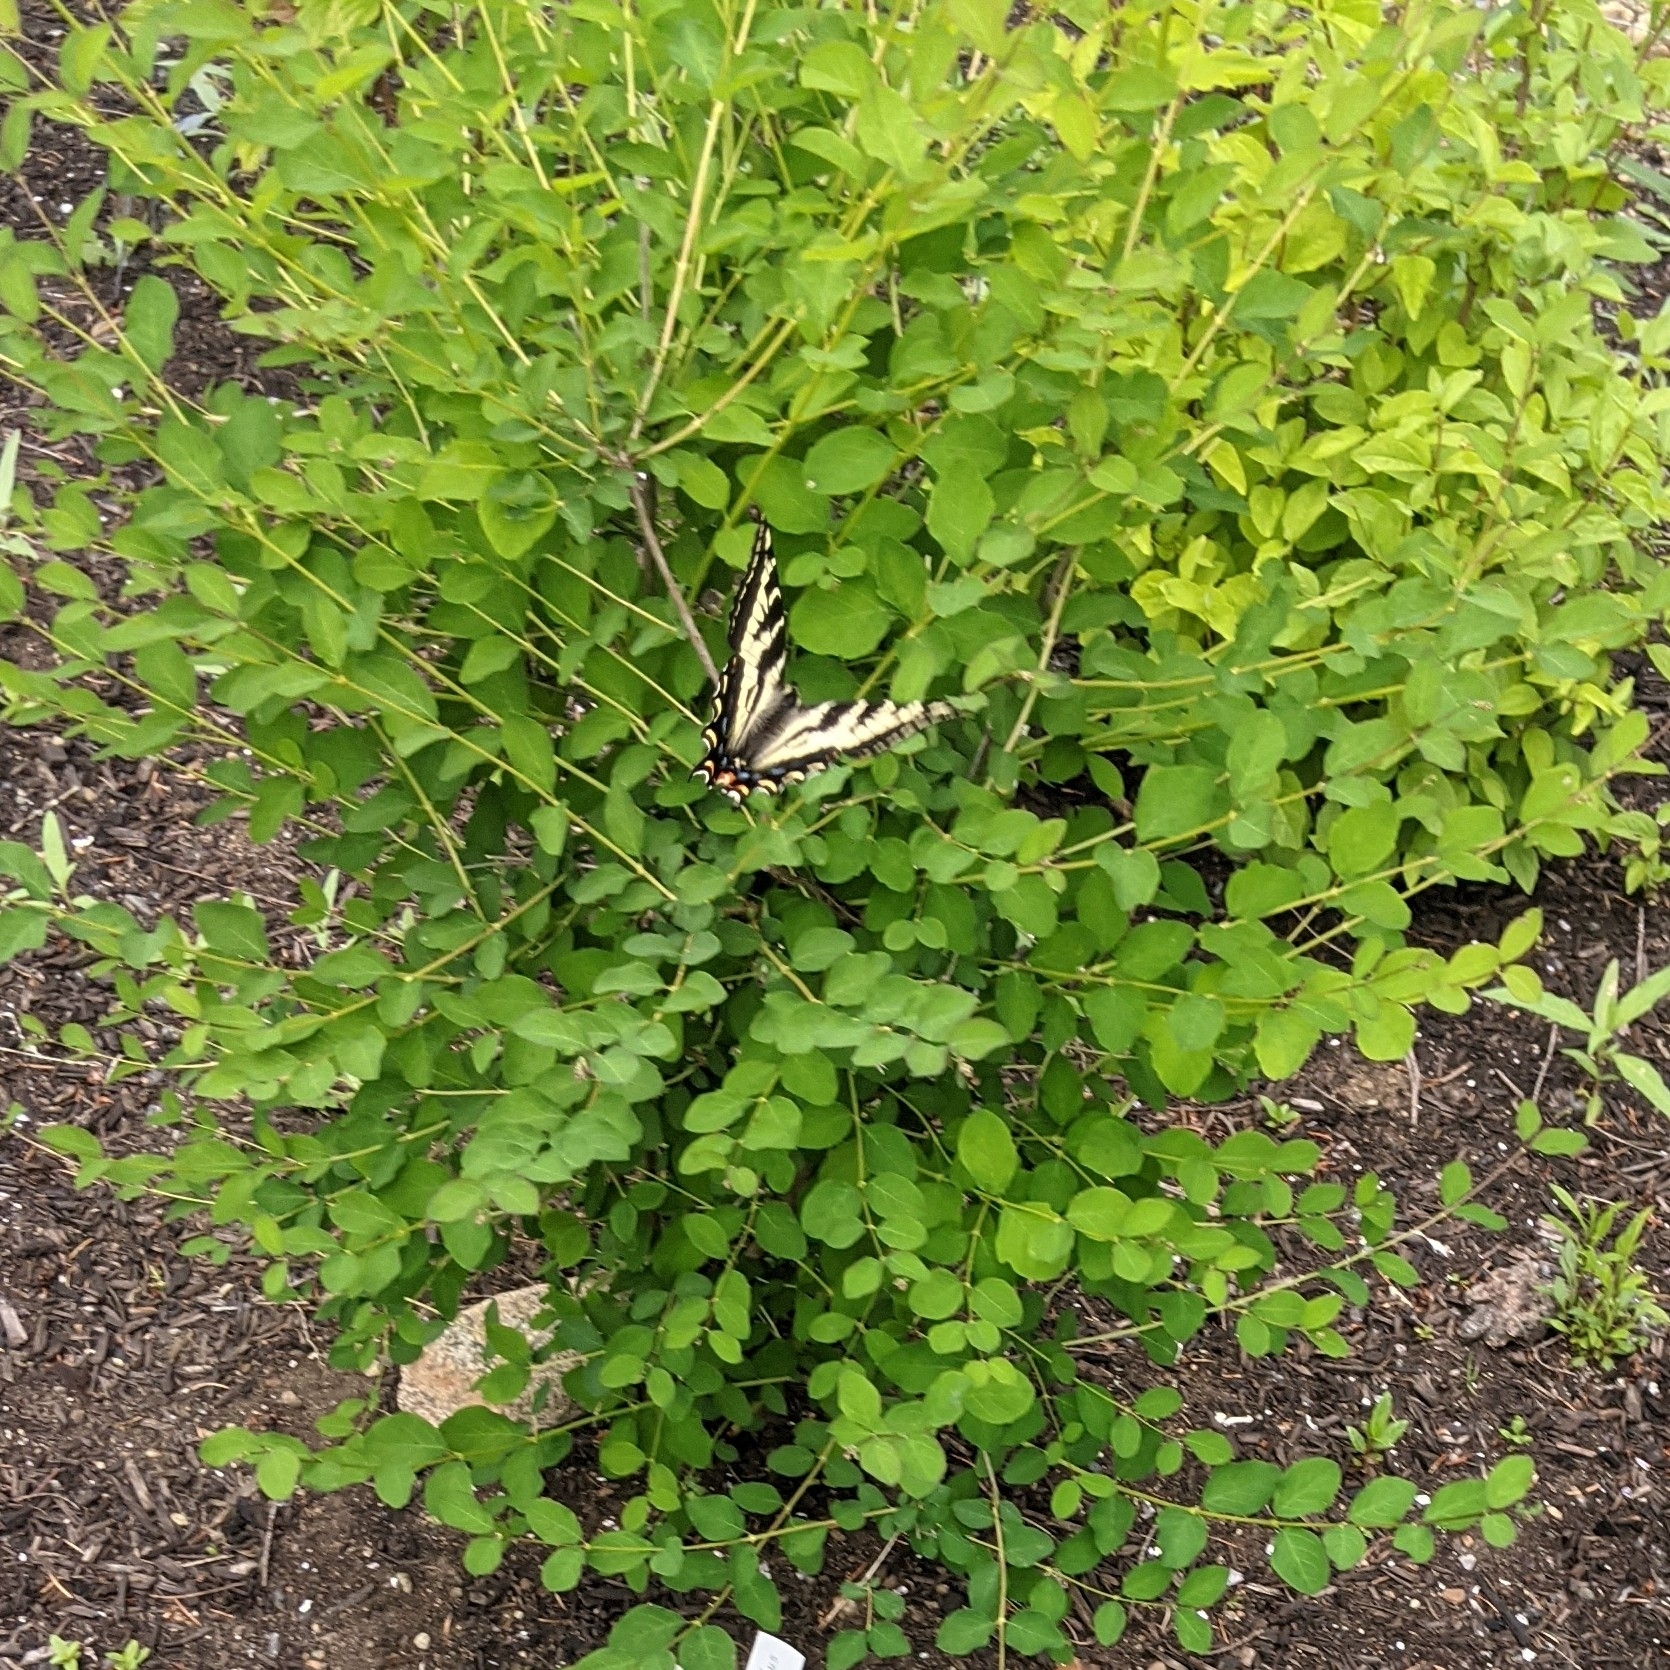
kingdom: Animalia
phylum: Arthropoda
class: Insecta
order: Lepidoptera
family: Papilionidae
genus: Papilio
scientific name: Papilio eurymedon
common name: Pale tiger swallowtail
